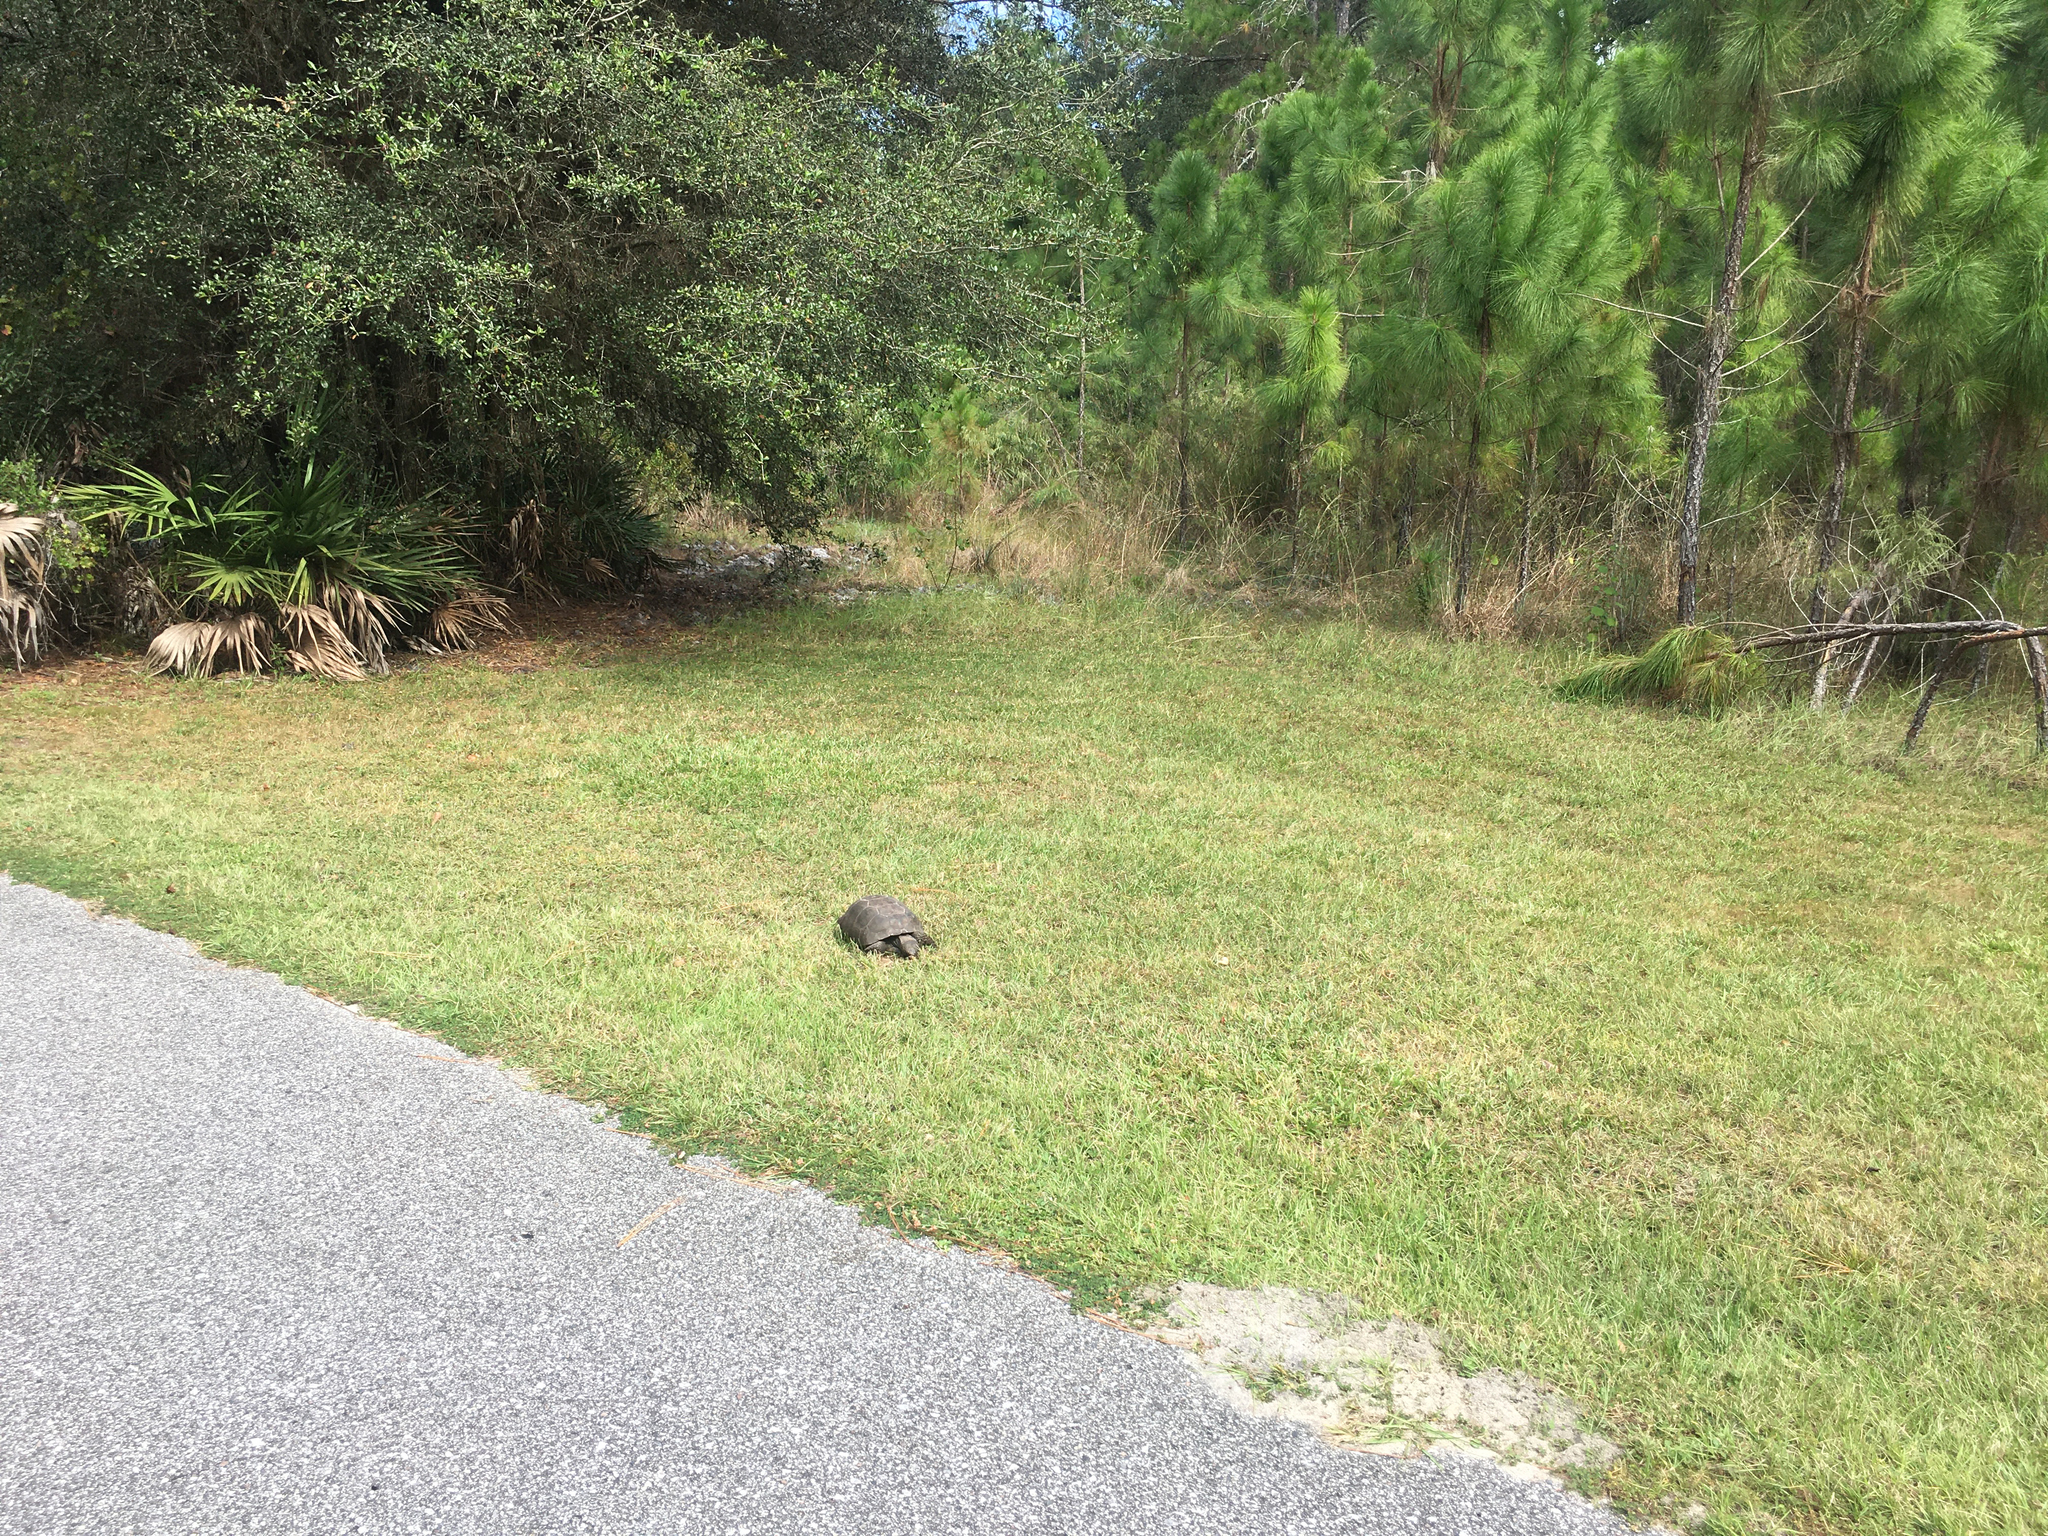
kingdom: Animalia
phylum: Chordata
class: Testudines
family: Testudinidae
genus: Gopherus
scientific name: Gopherus polyphemus
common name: Florida gopher tortoise
